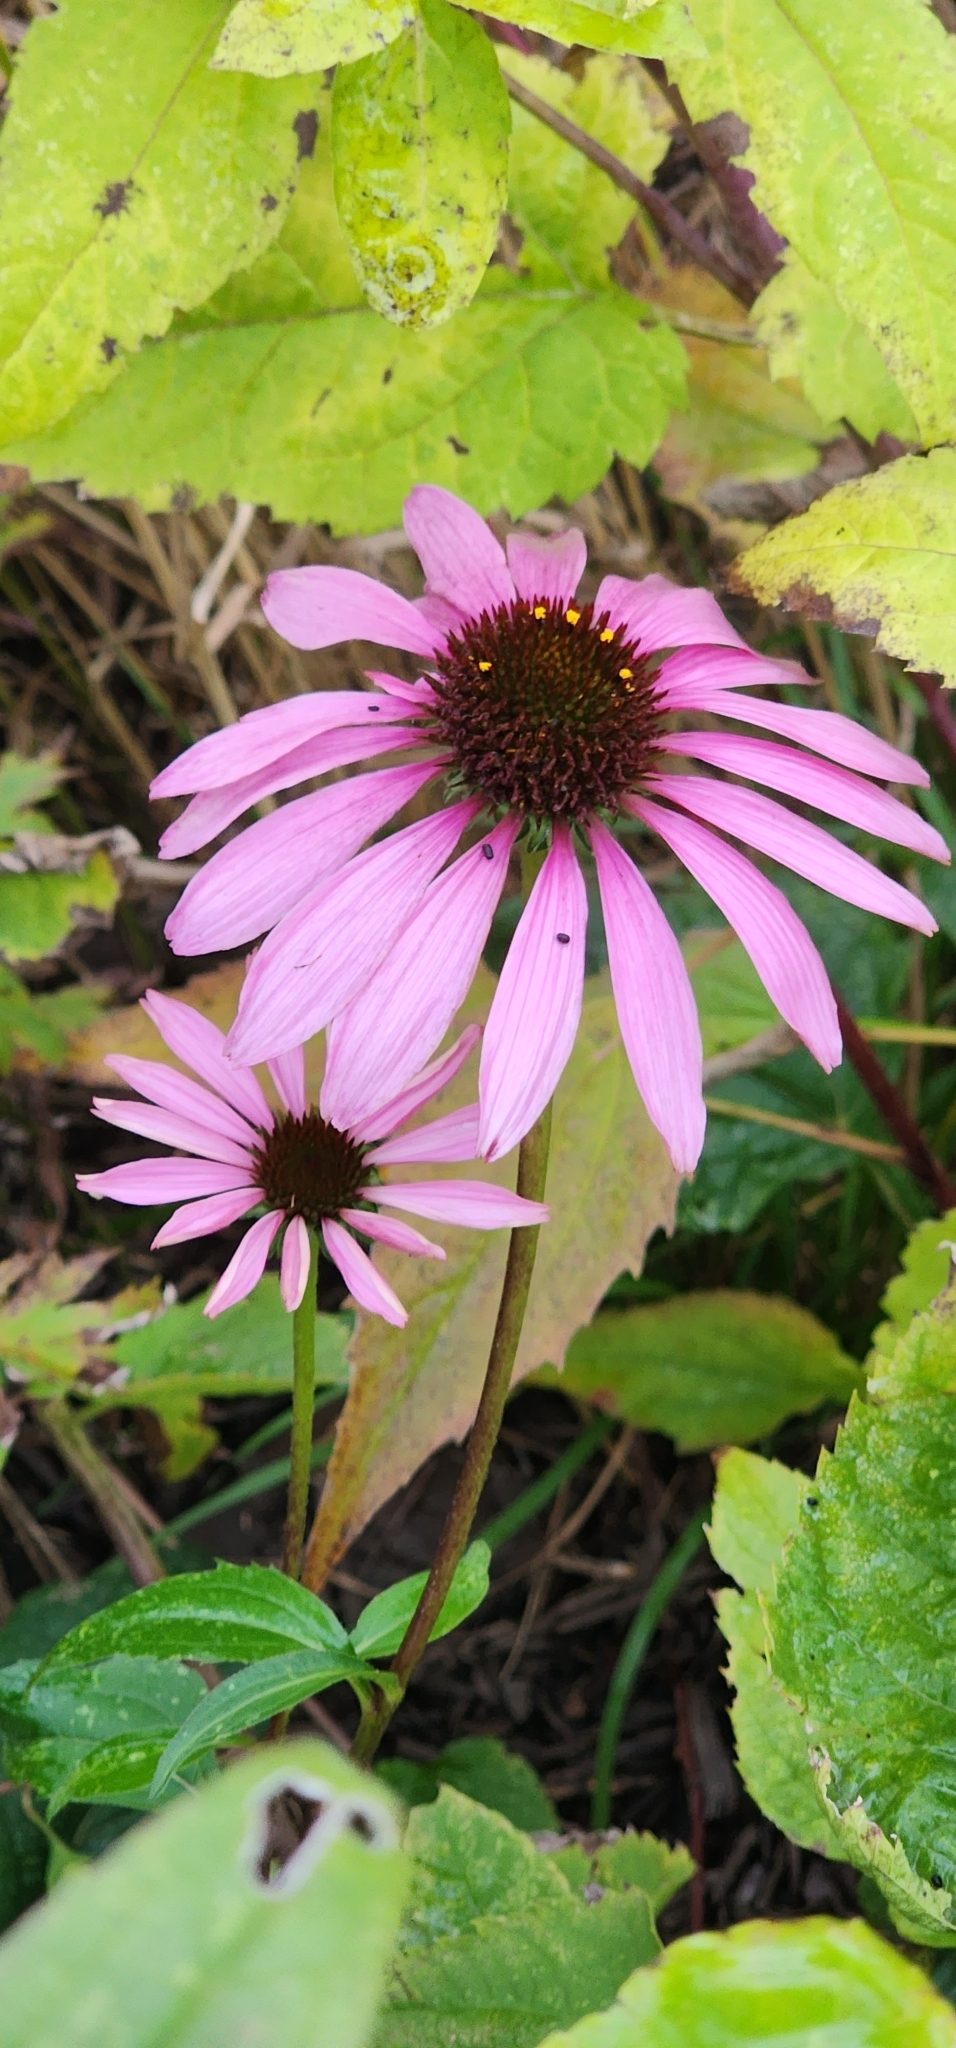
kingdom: Plantae
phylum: Tracheophyta
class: Magnoliopsida
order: Asterales
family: Asteraceae
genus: Echinacea
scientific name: Echinacea purpurea
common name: Broad-leaved purple coneflower
